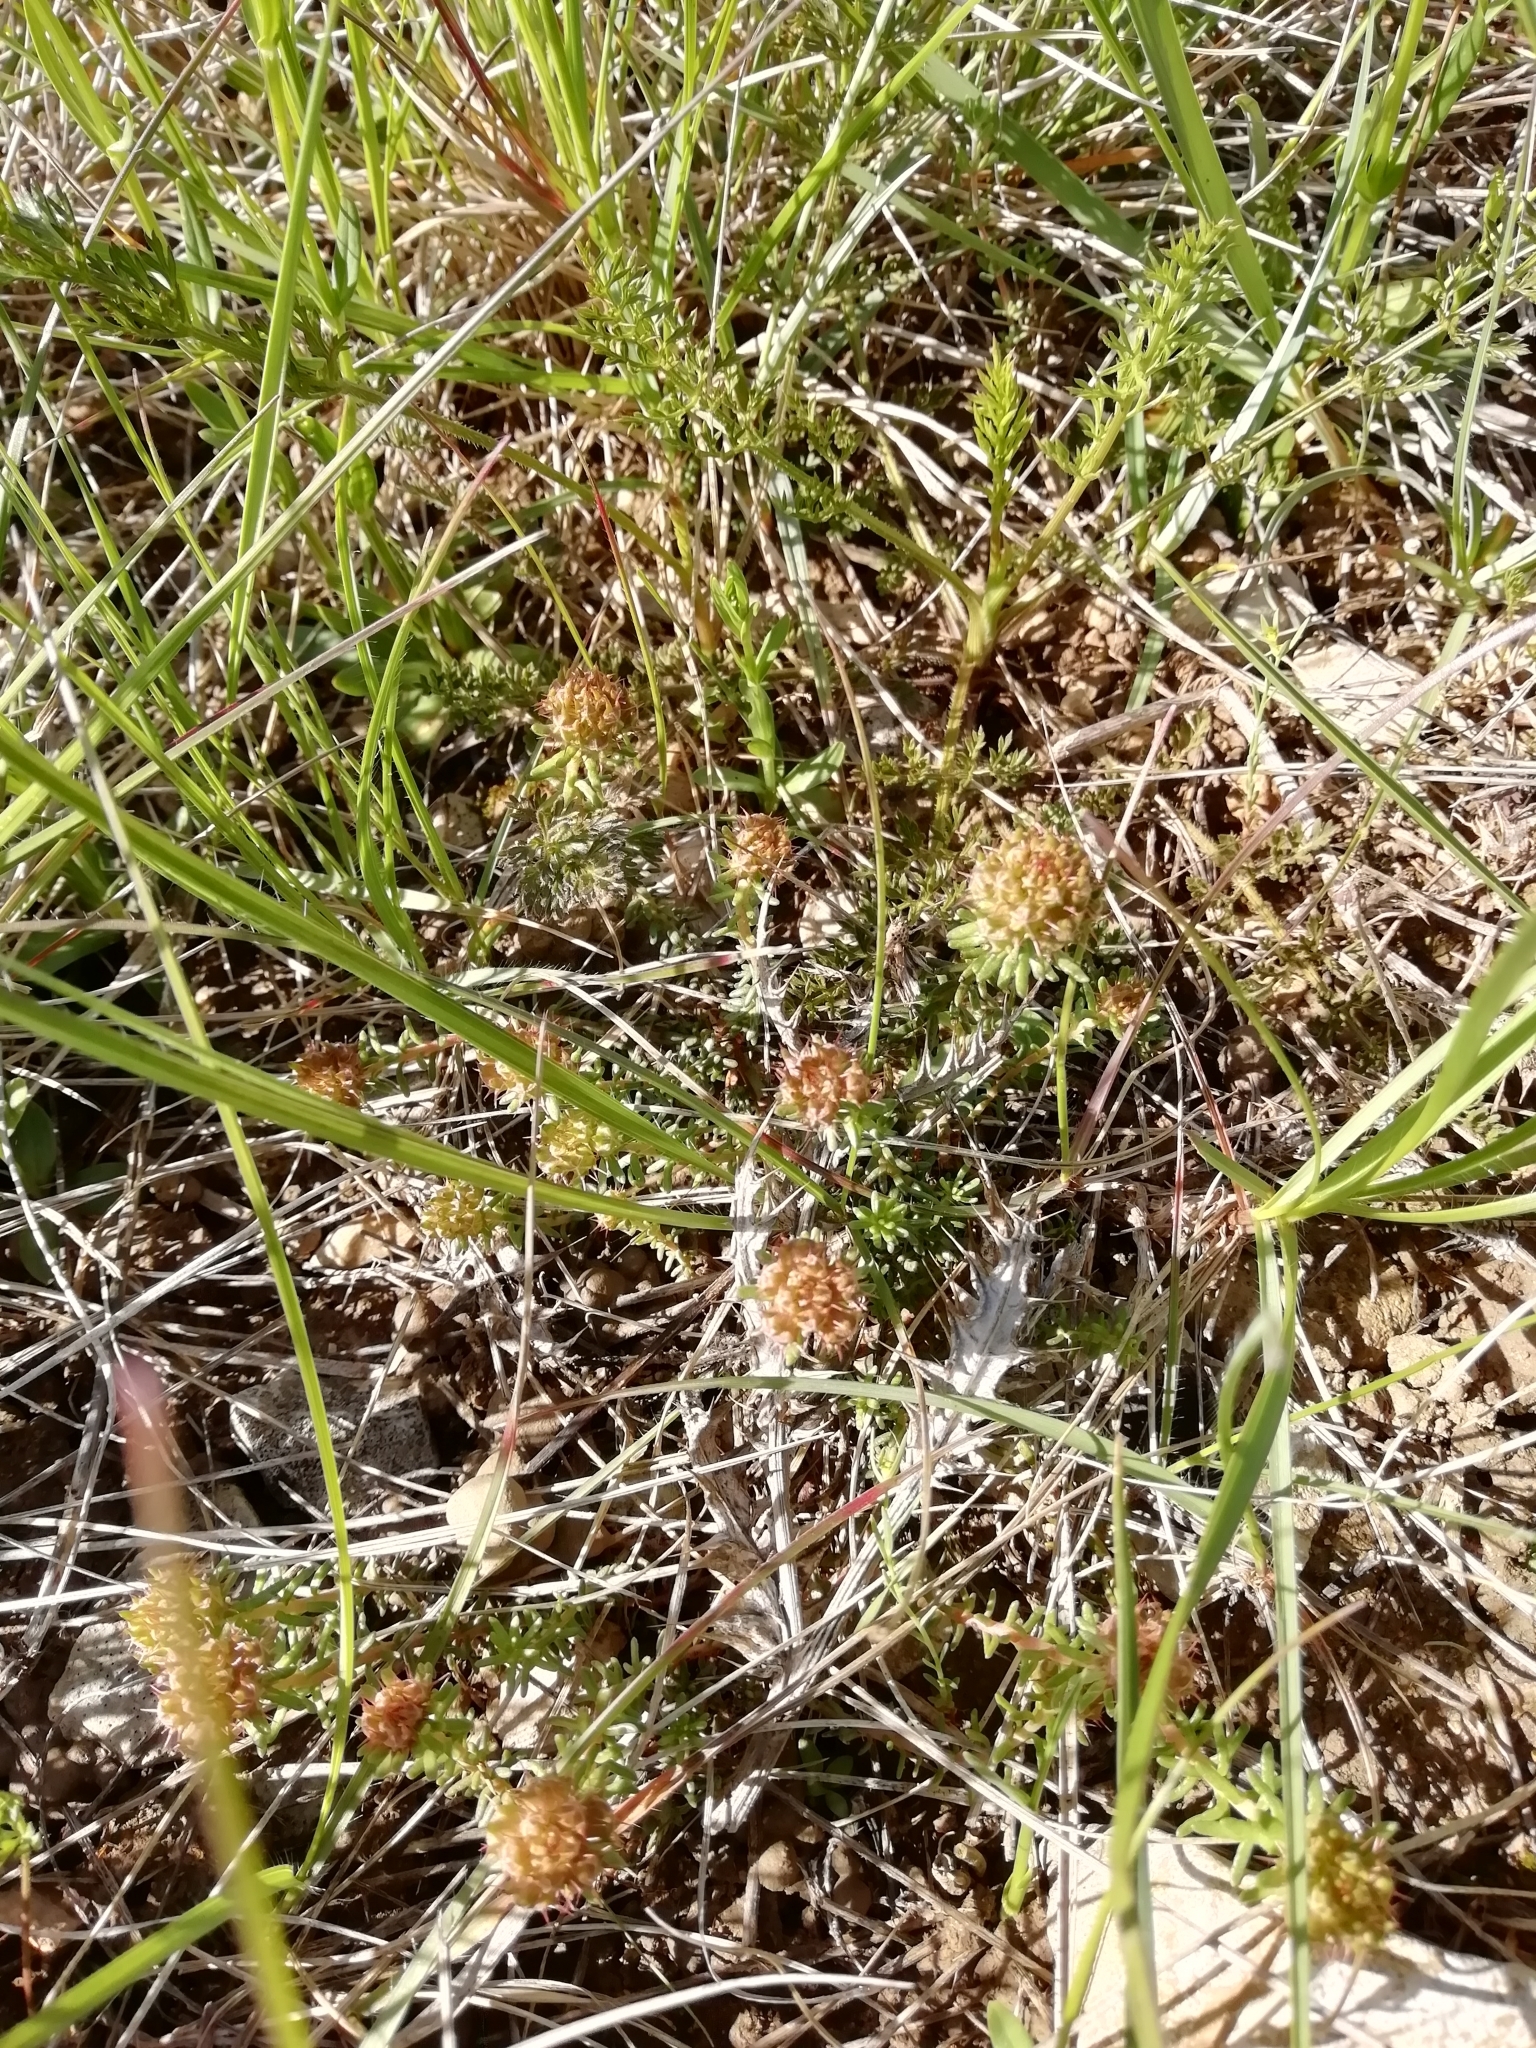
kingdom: Plantae
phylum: Tracheophyta
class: Magnoliopsida
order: Ericales
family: Primulaceae
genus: Coris
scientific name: Coris monspeliensis
